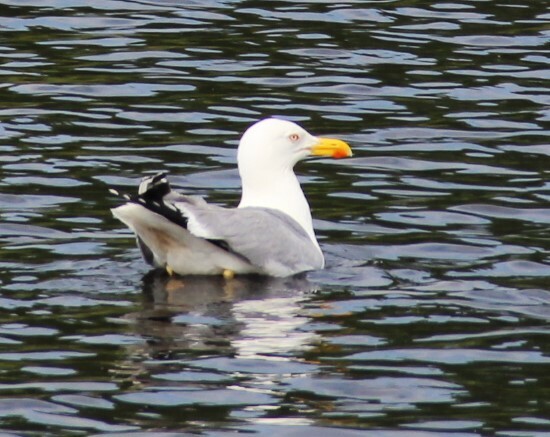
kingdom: Animalia
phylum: Chordata
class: Aves
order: Charadriiformes
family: Laridae
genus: Larus
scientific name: Larus argentatus
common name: Herring gull
